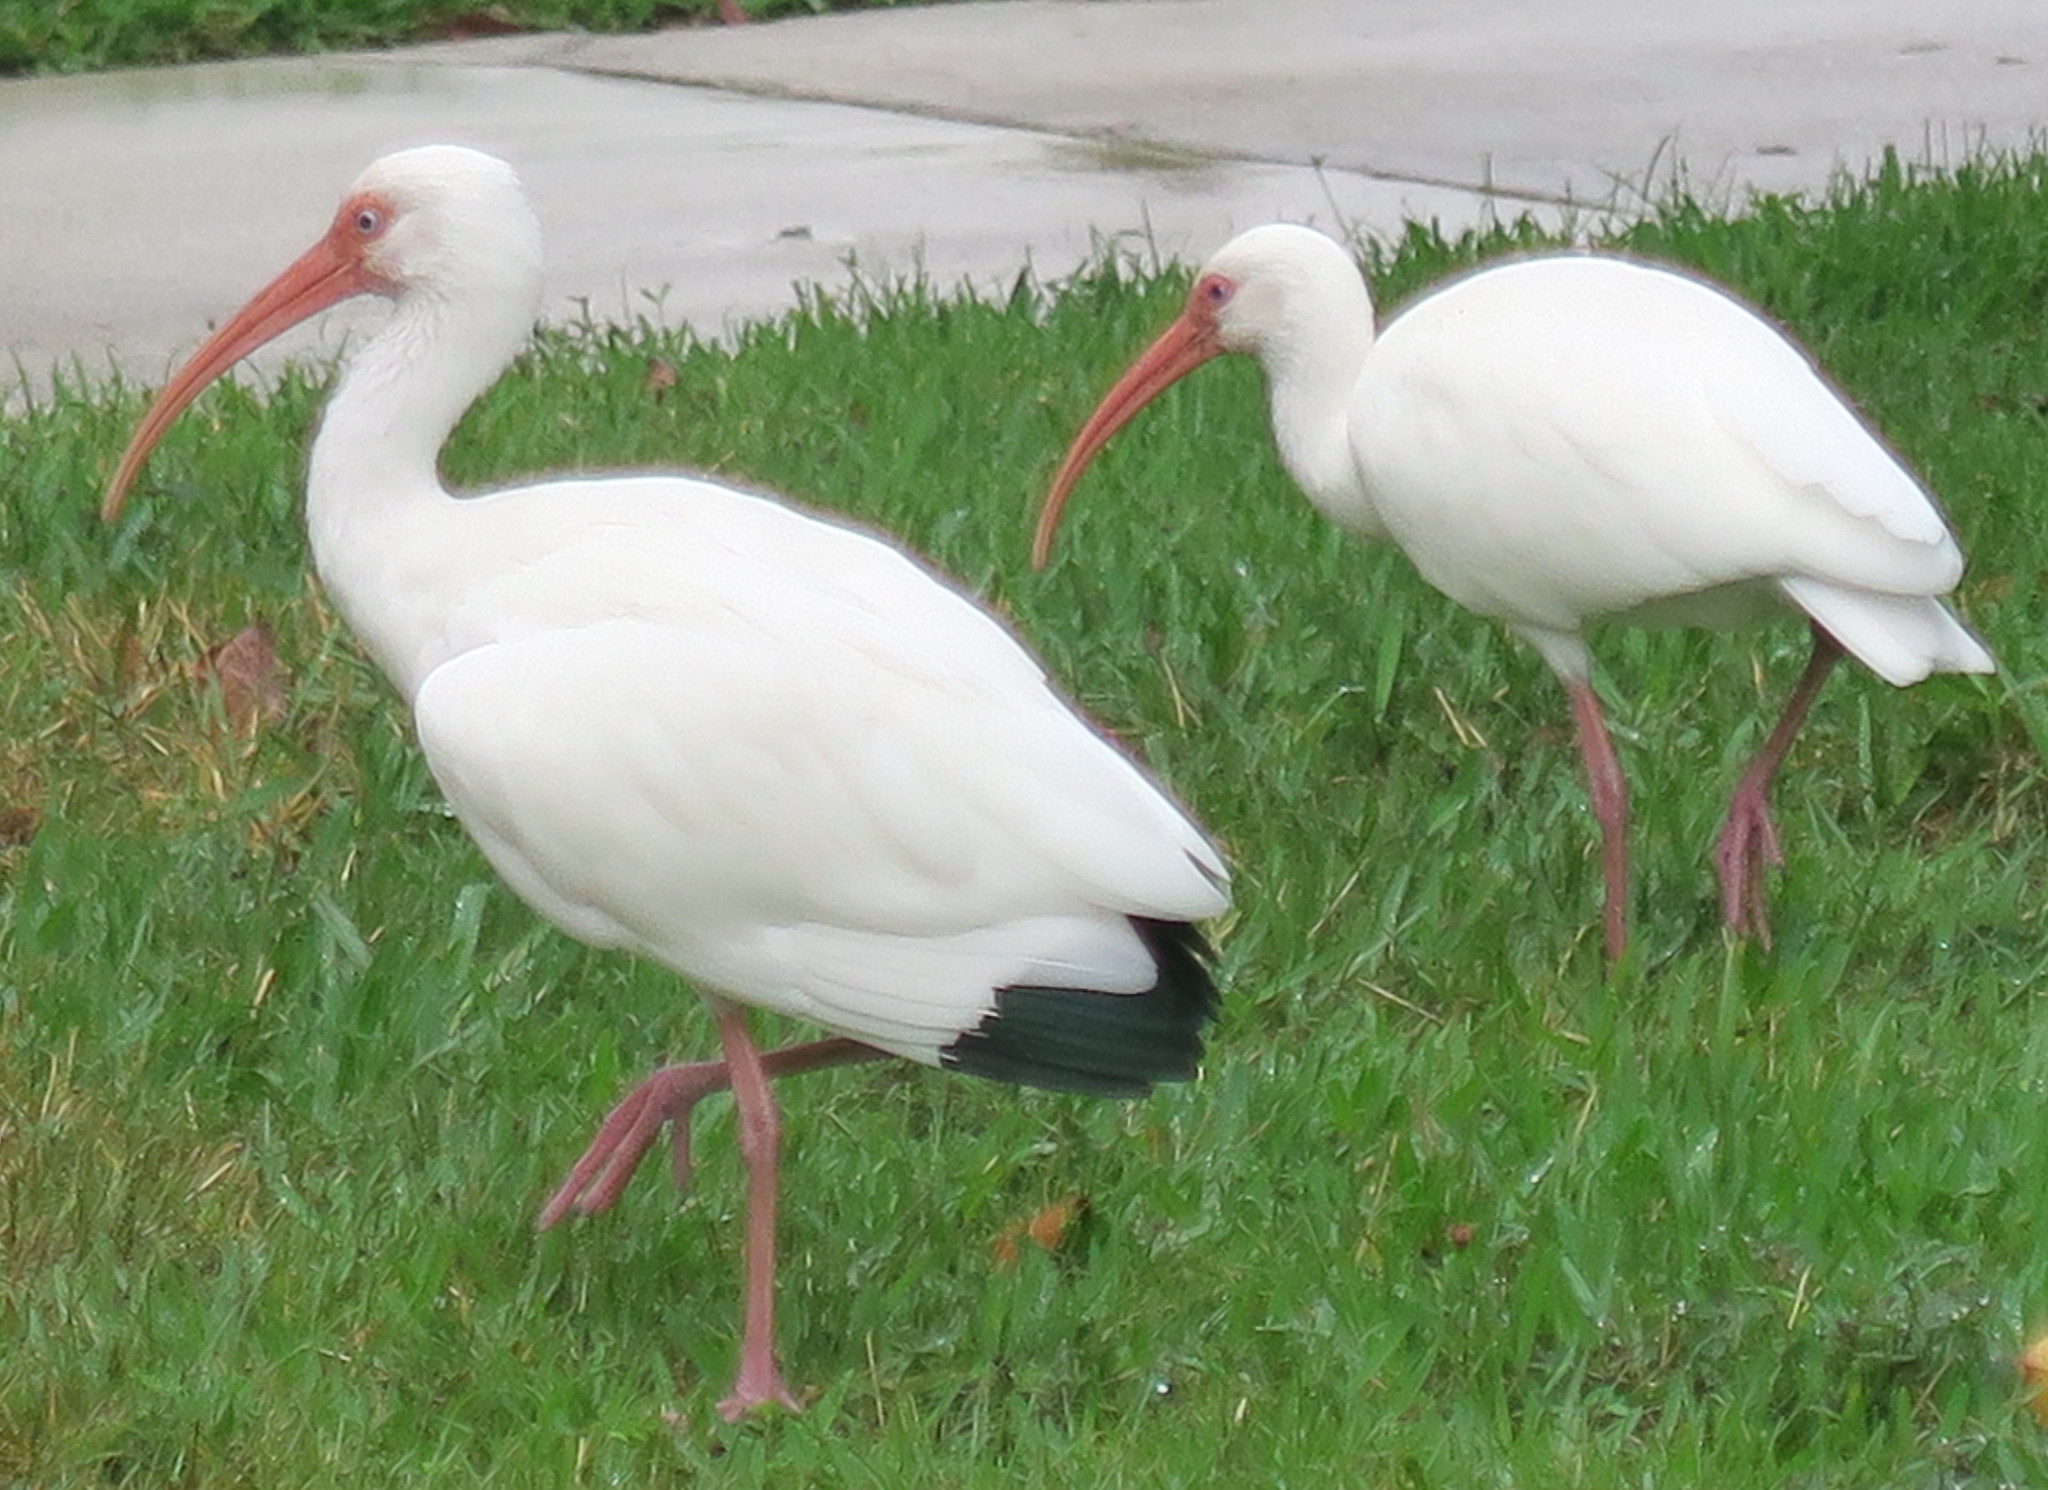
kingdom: Animalia
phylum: Chordata
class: Aves
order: Pelecaniformes
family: Threskiornithidae
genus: Eudocimus
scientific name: Eudocimus albus
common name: White ibis
